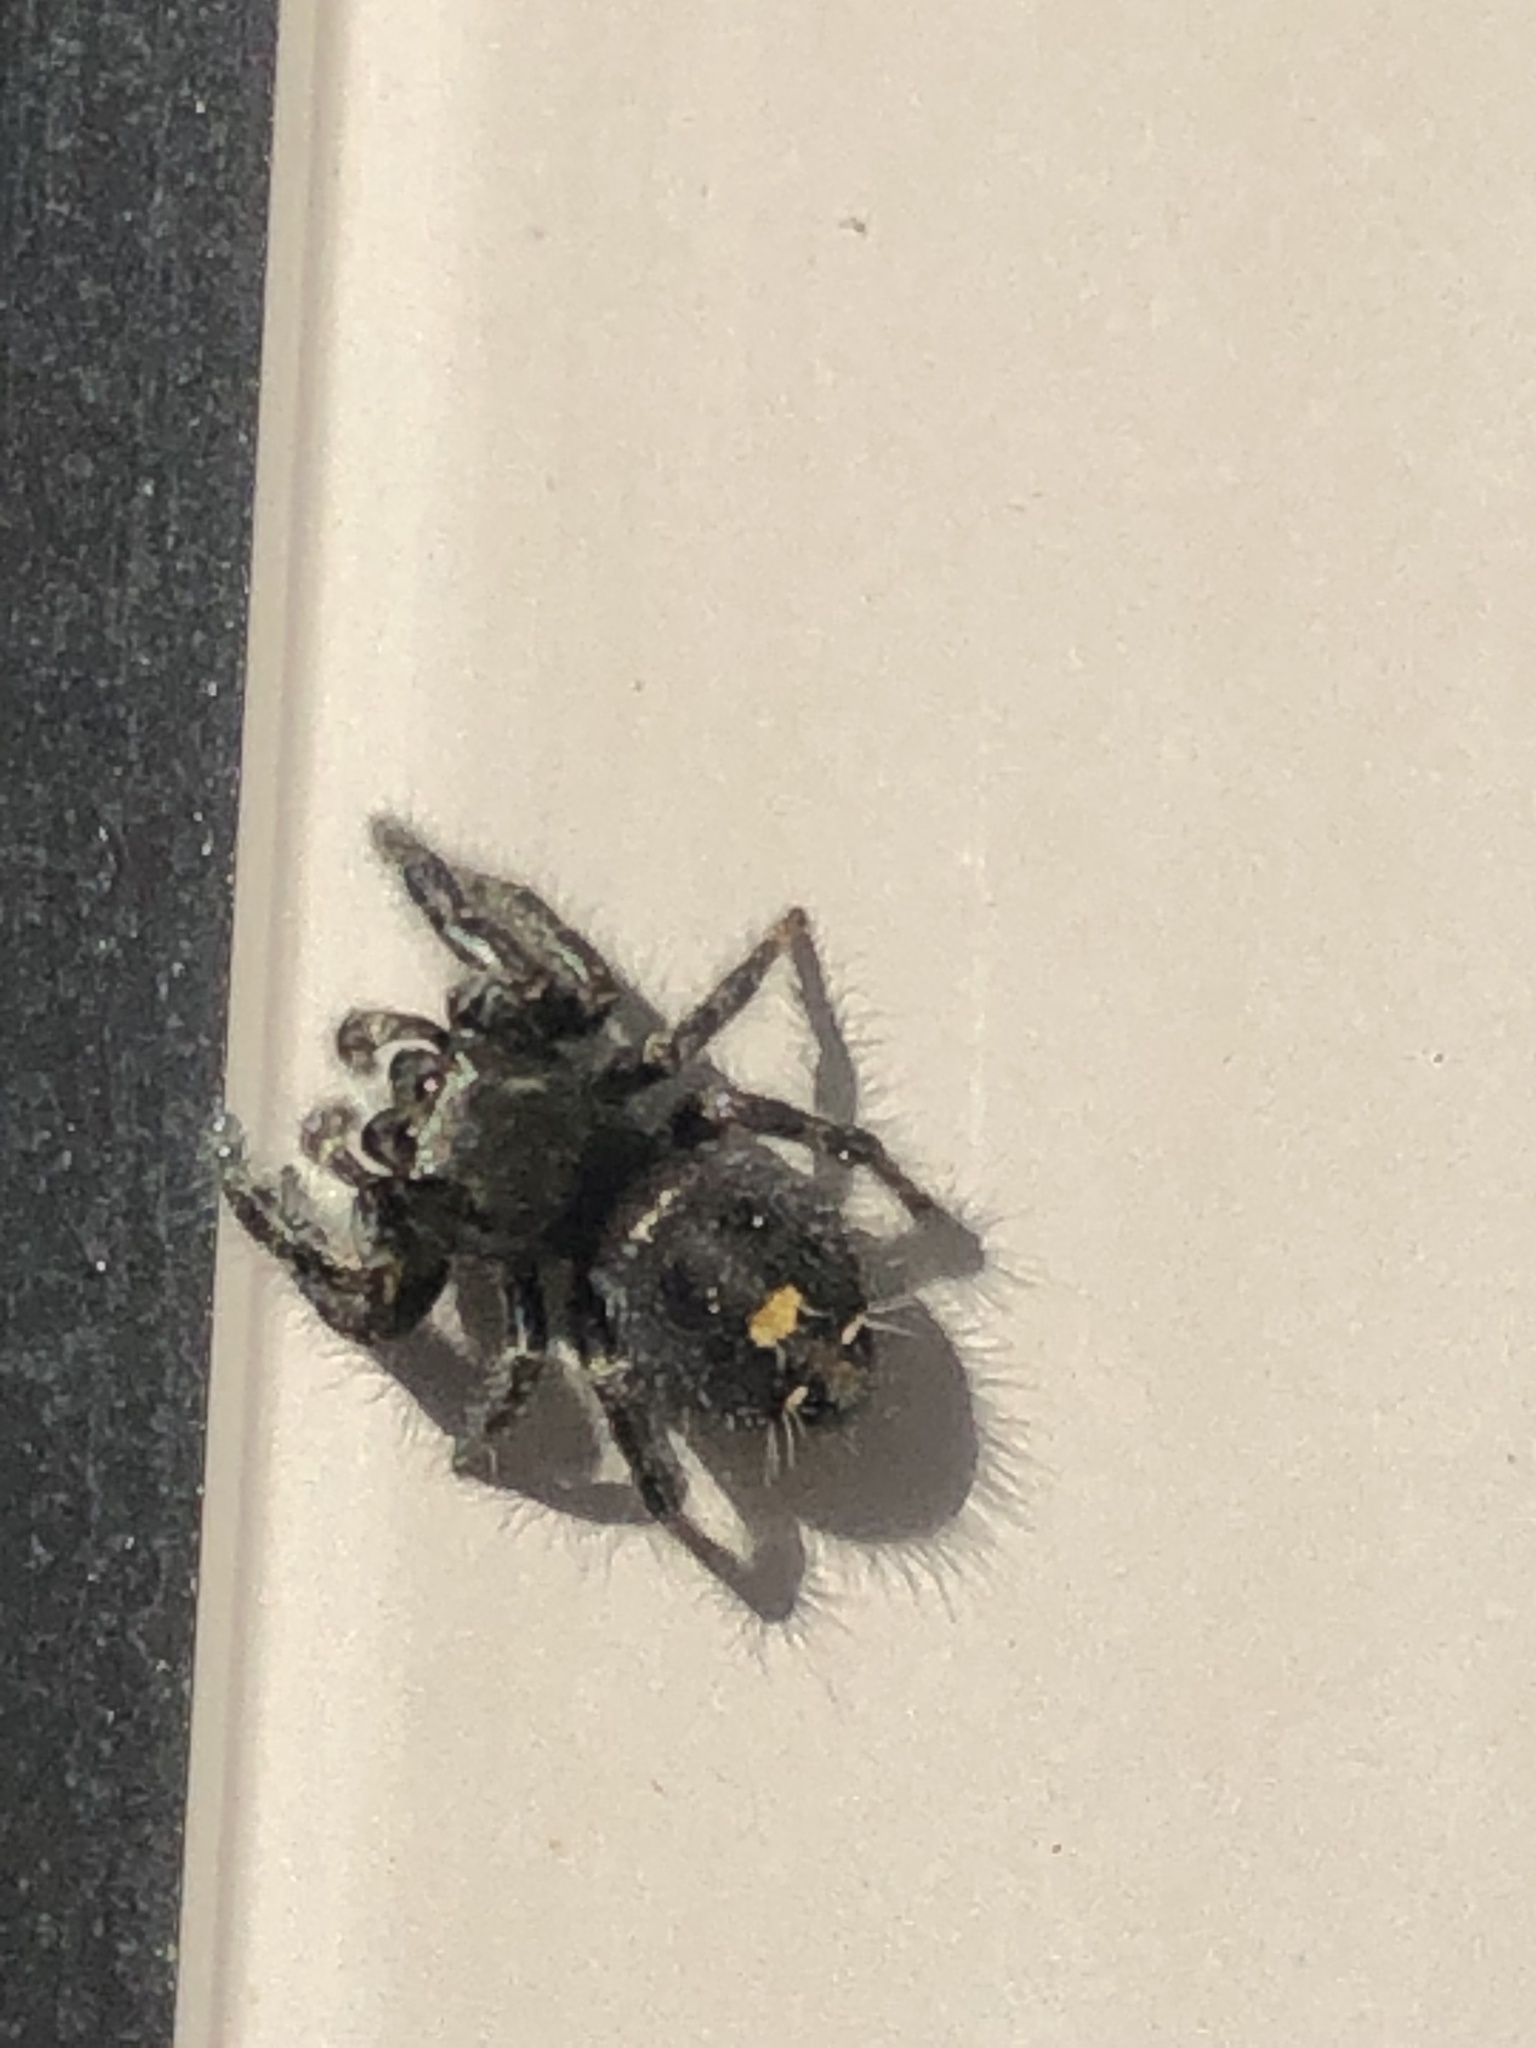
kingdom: Animalia
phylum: Arthropoda
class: Arachnida
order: Araneae
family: Salticidae
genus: Phidippus
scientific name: Phidippus audax
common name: Bold jumper
